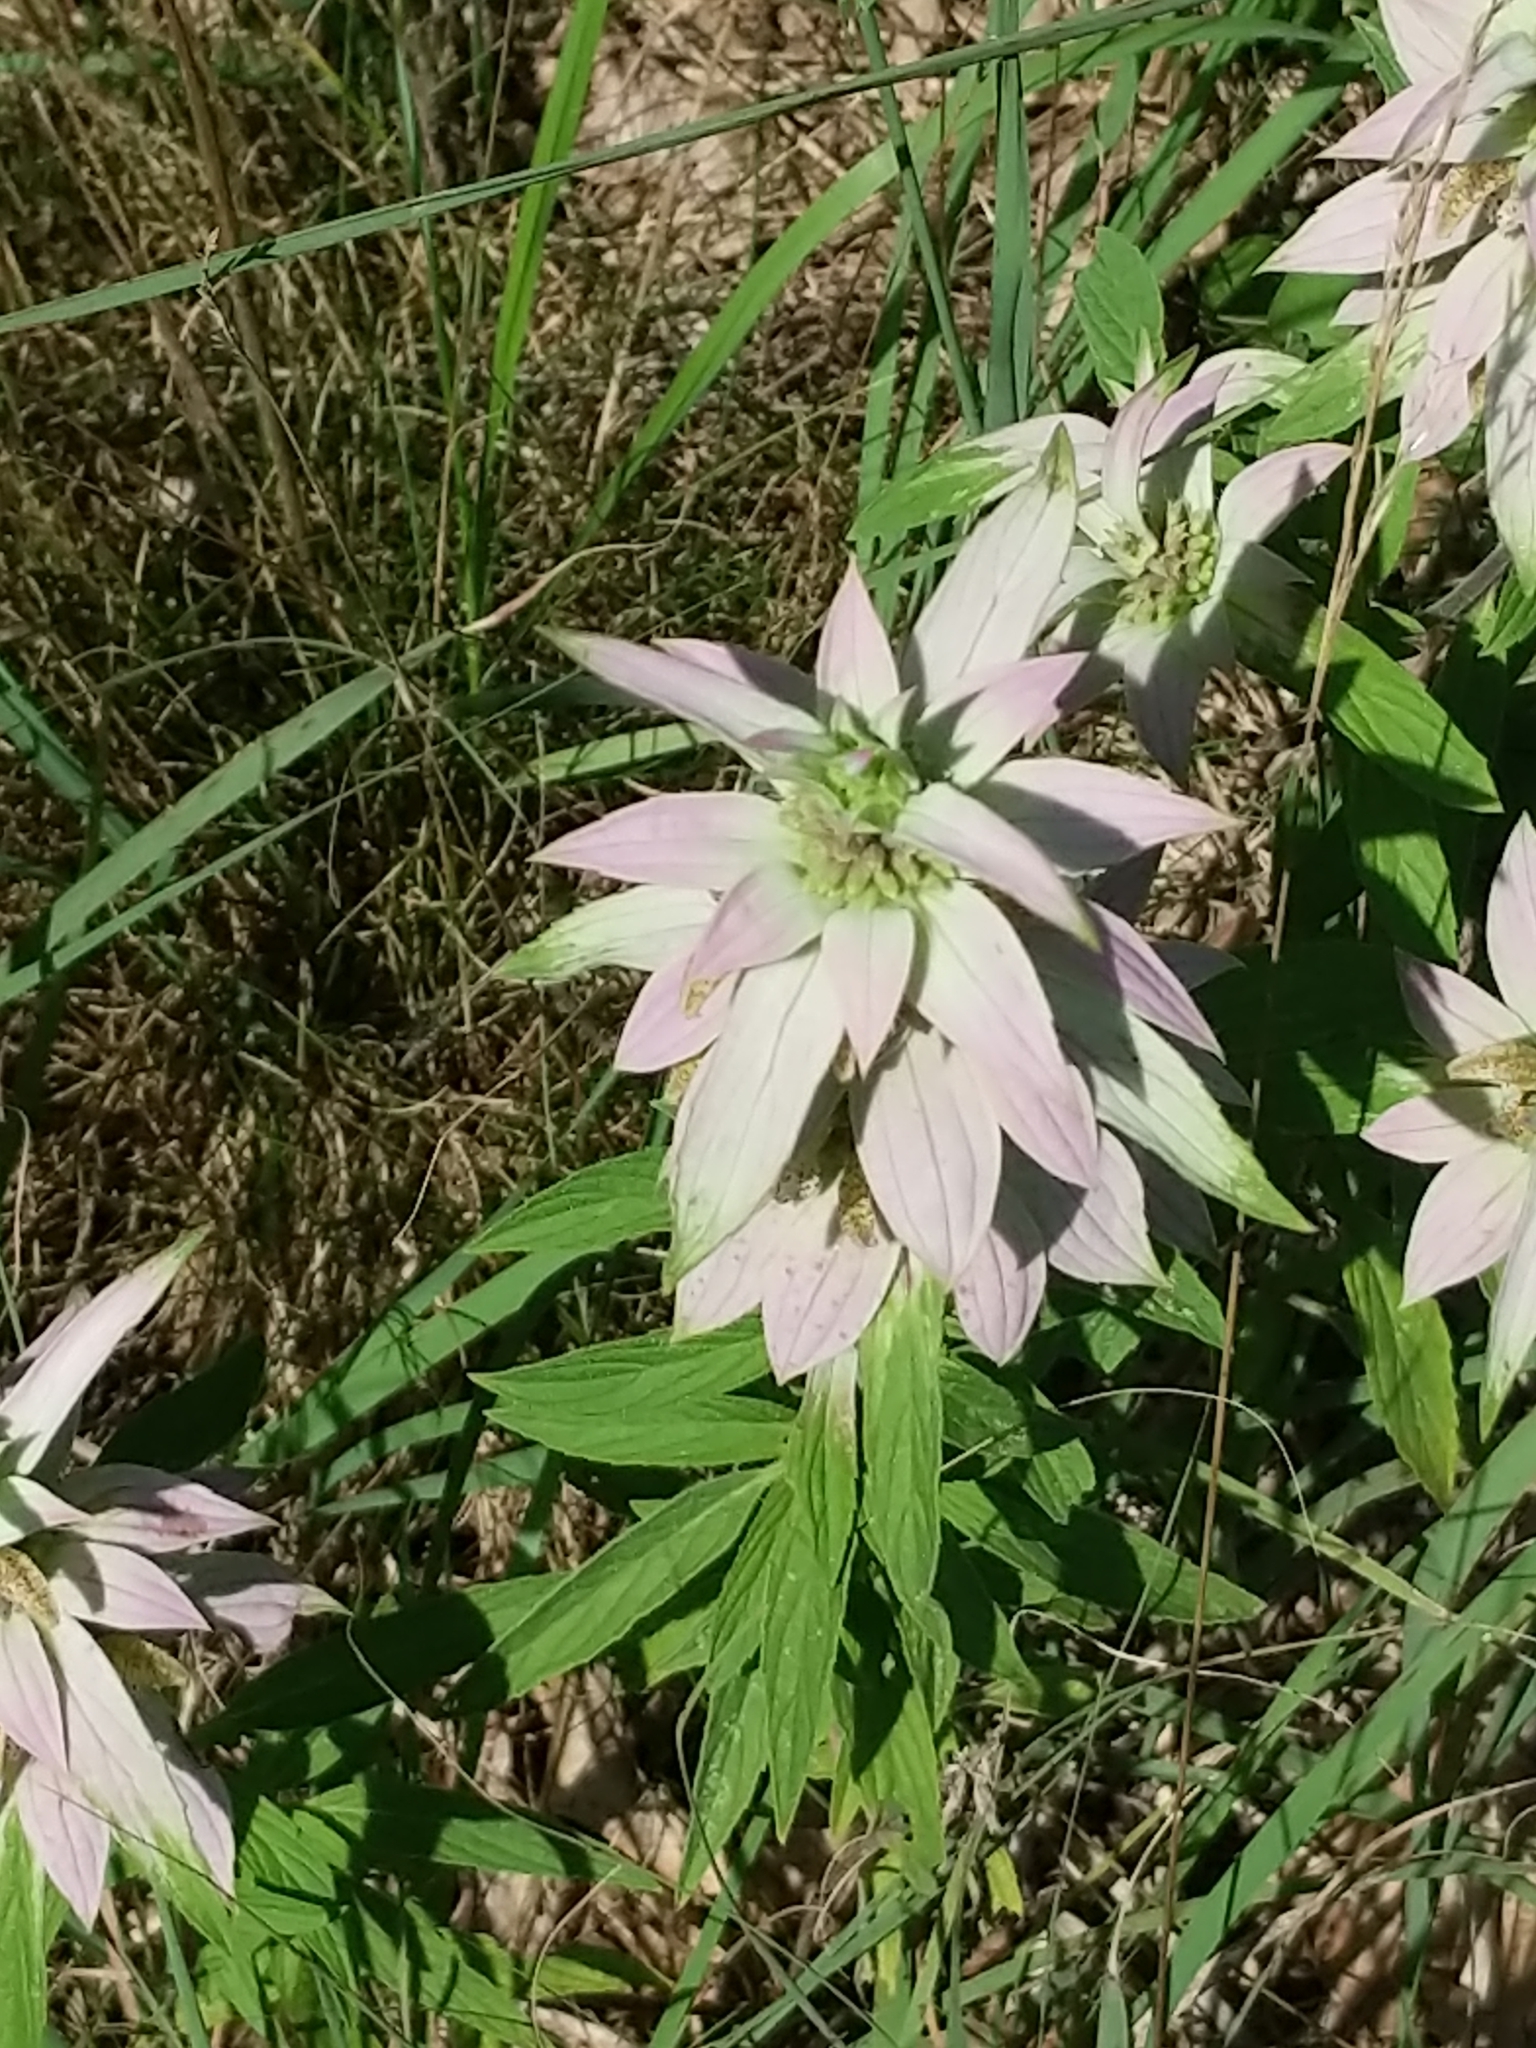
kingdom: Plantae
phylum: Tracheophyta
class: Magnoliopsida
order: Lamiales
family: Lamiaceae
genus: Monarda
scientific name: Monarda punctata
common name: Dotted monarda
